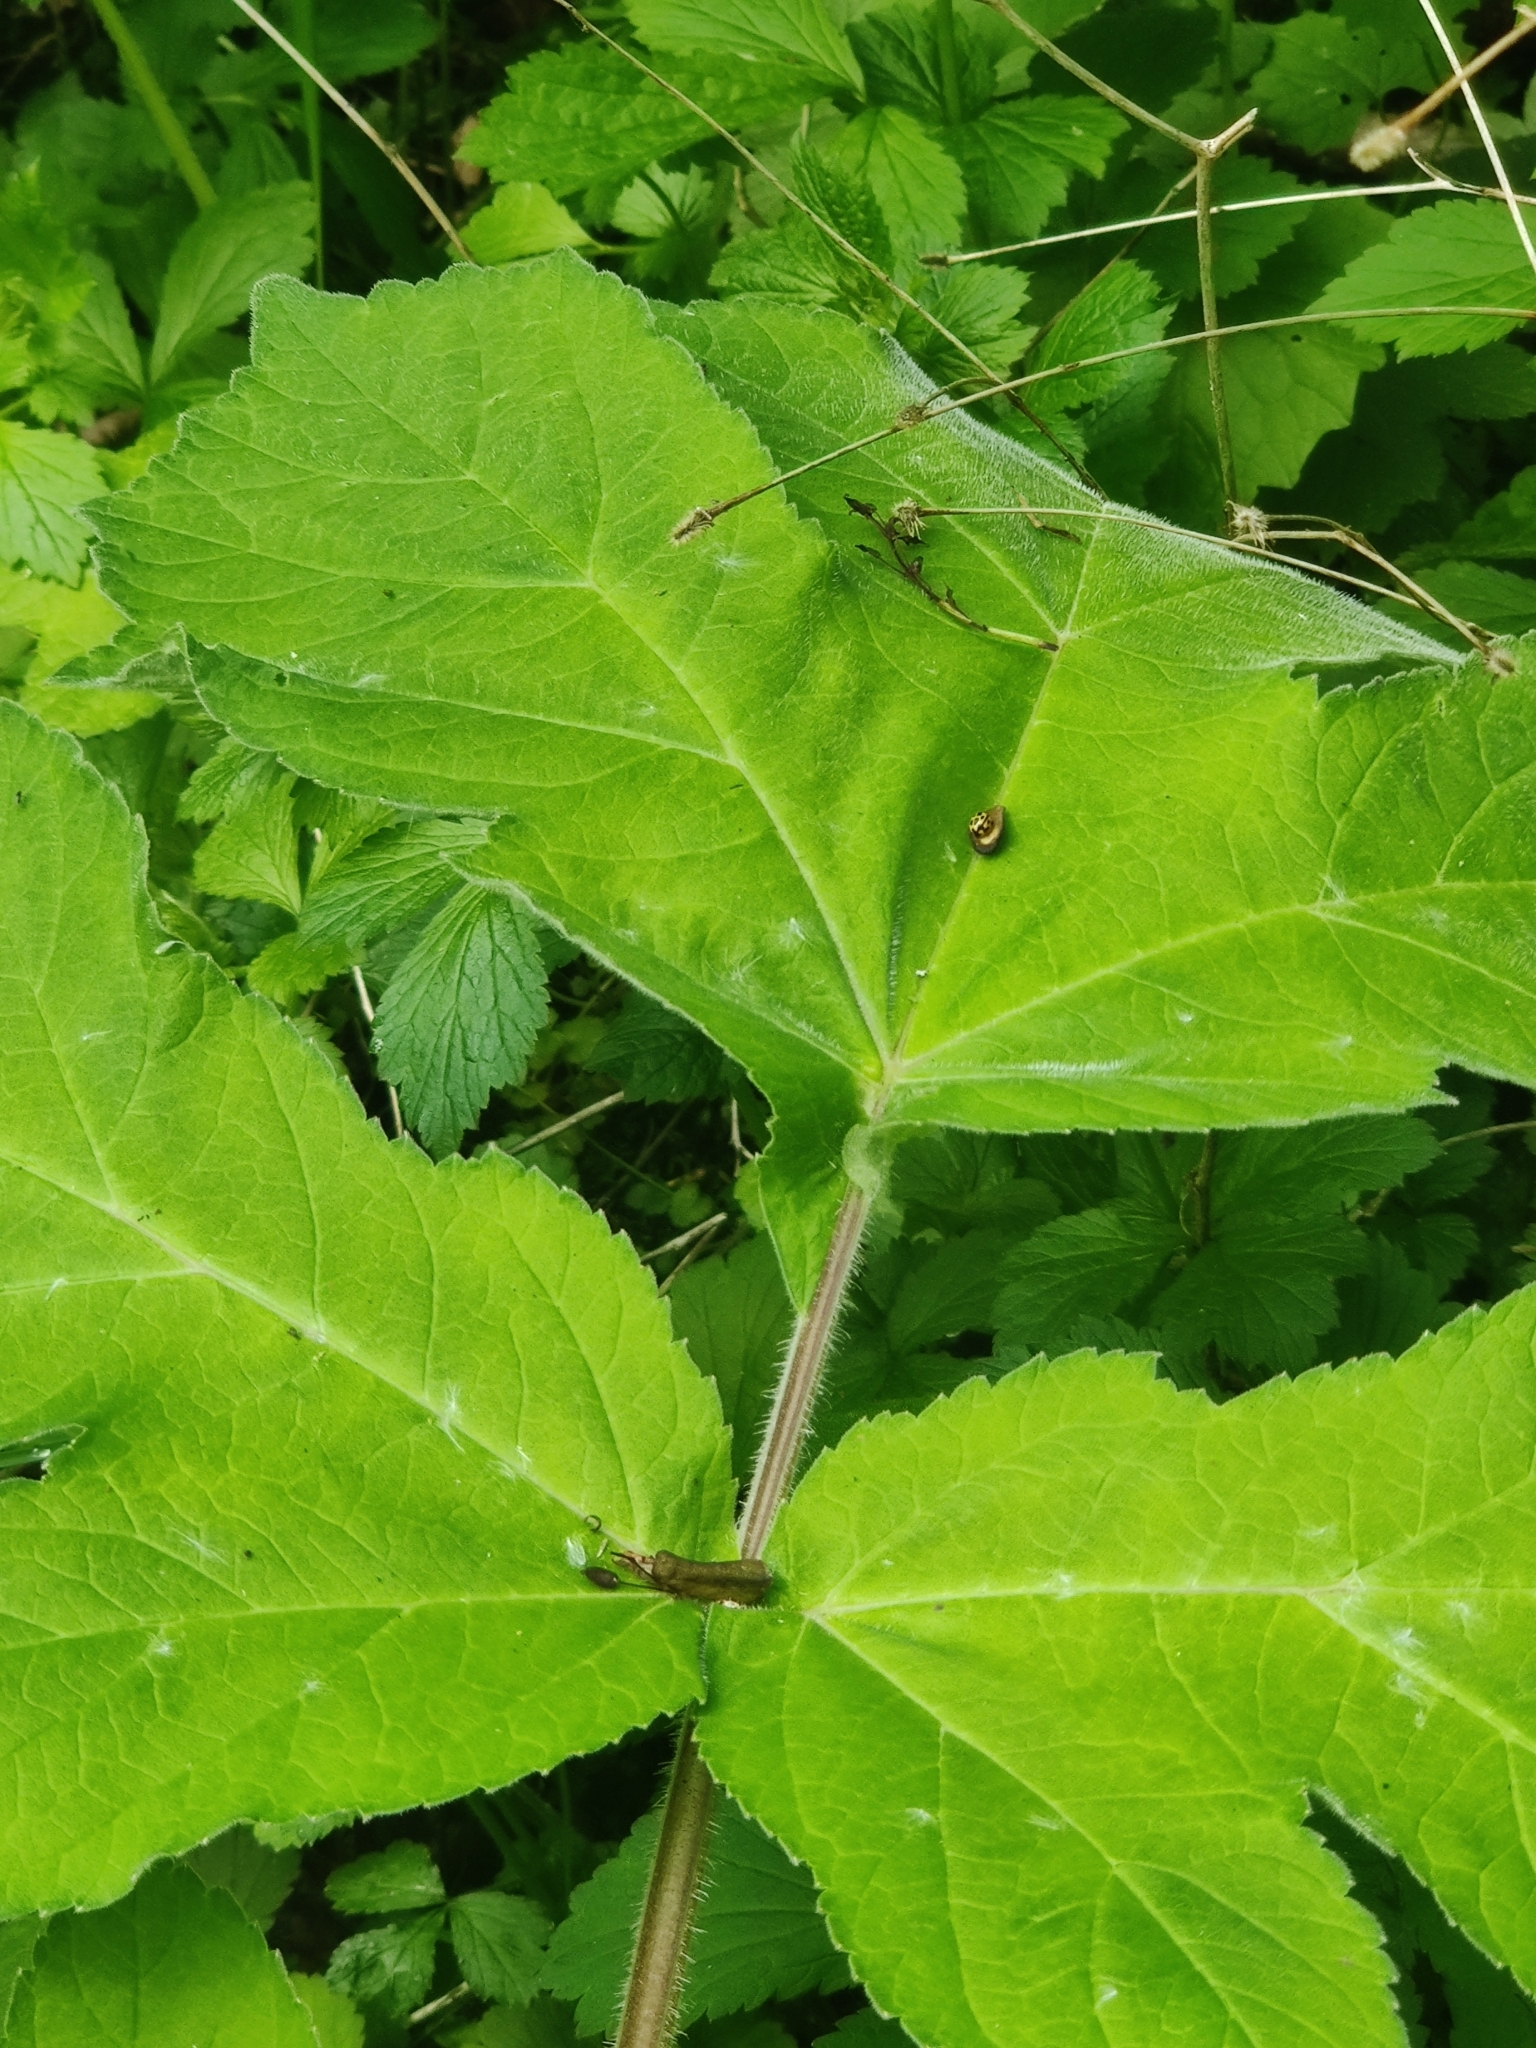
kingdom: Animalia
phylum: Arthropoda
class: Insecta
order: Coleoptera
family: Coccinellidae
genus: Propylaea
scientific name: Propylaea quatuordecimpunctata
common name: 14-spotted ladybird beetle
